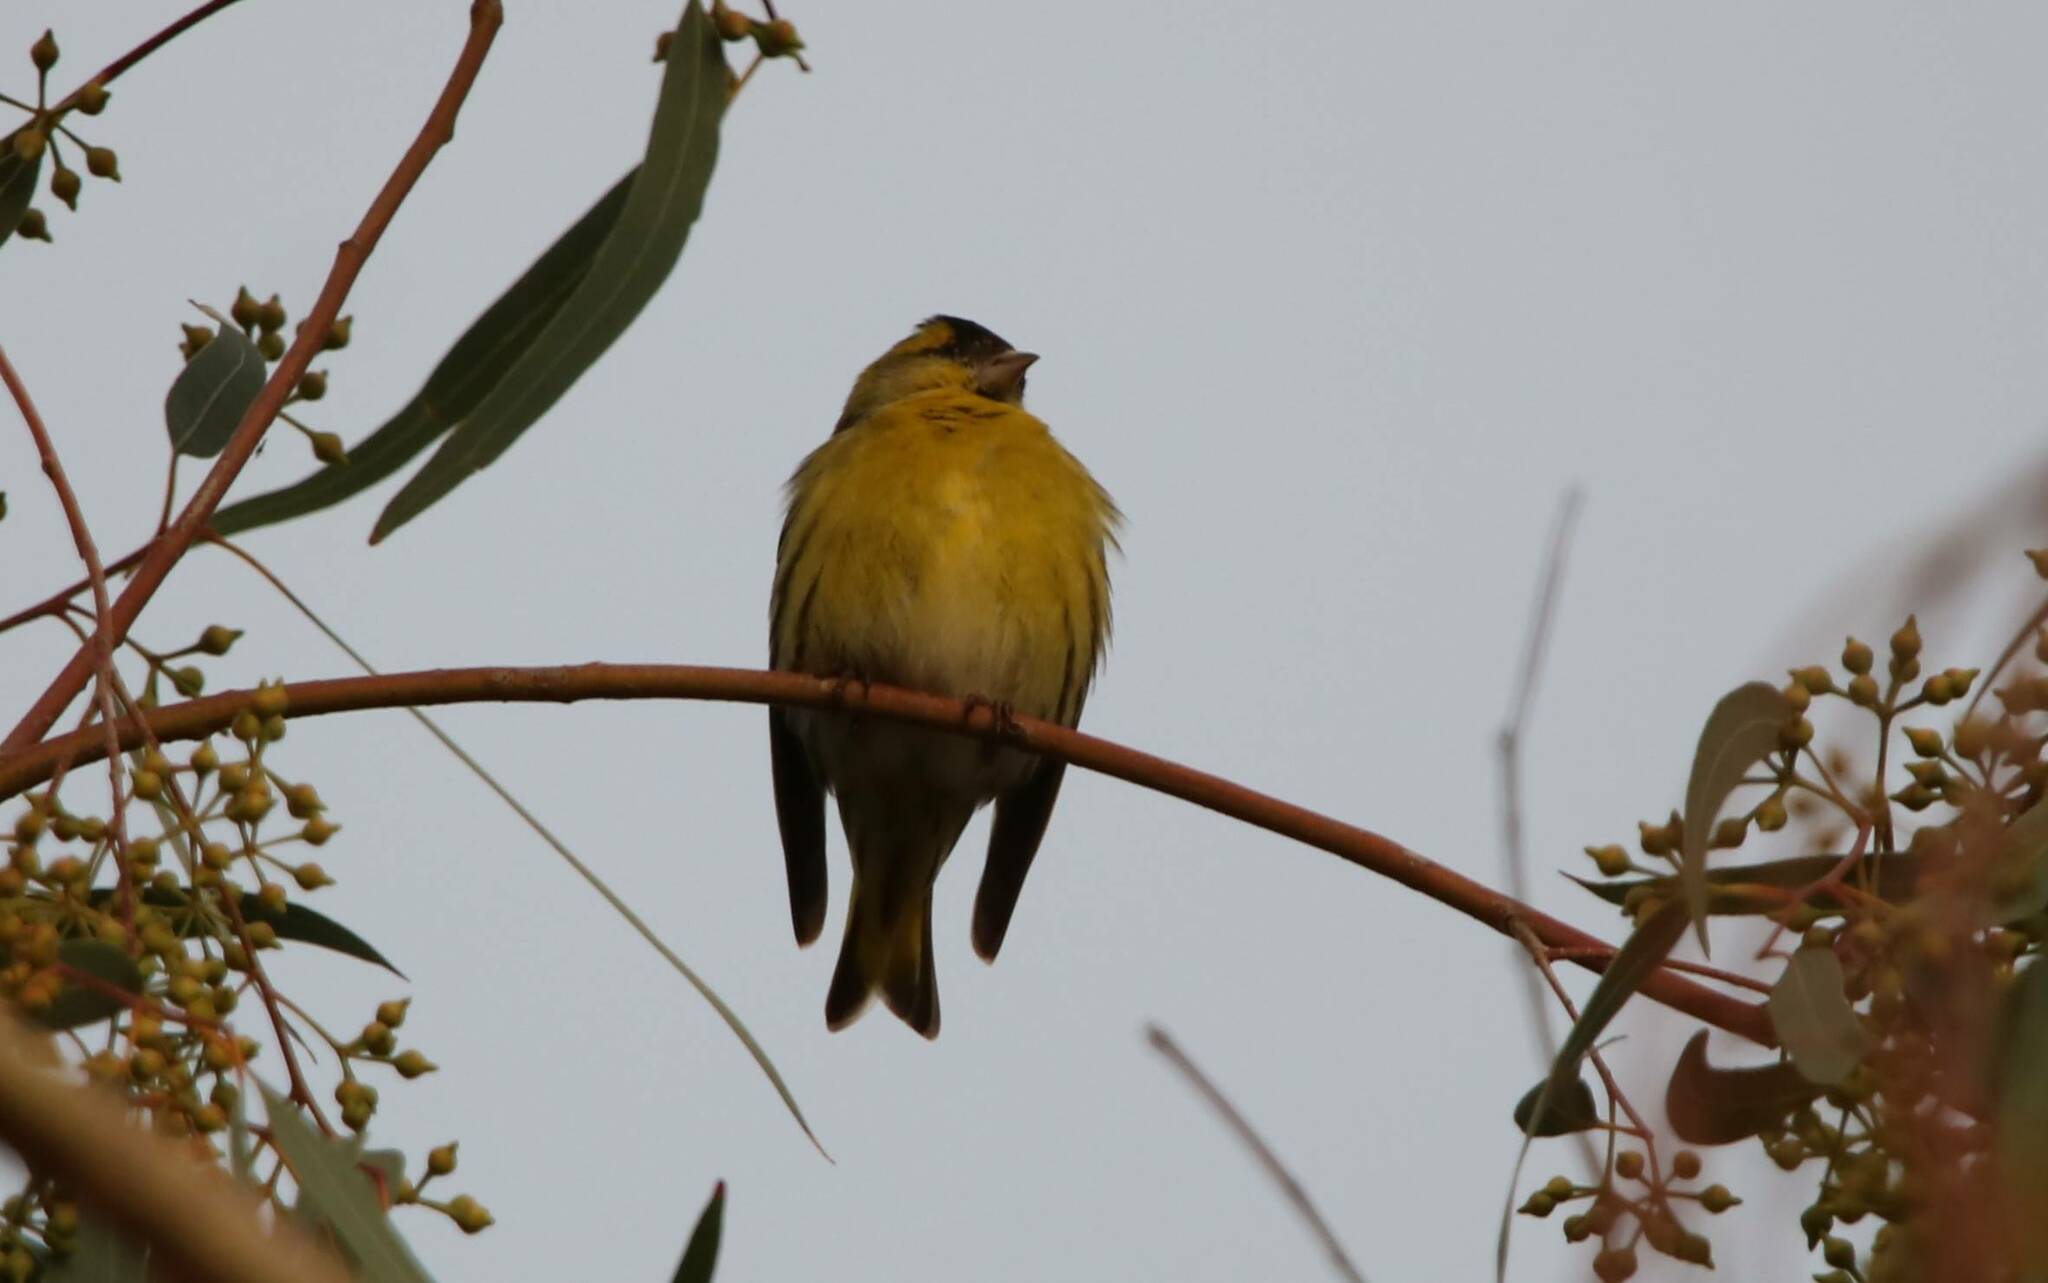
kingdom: Animalia
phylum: Chordata
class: Aves
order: Passeriformes
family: Fringillidae
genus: Spinus
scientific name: Spinus spinus
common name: Eurasian siskin
